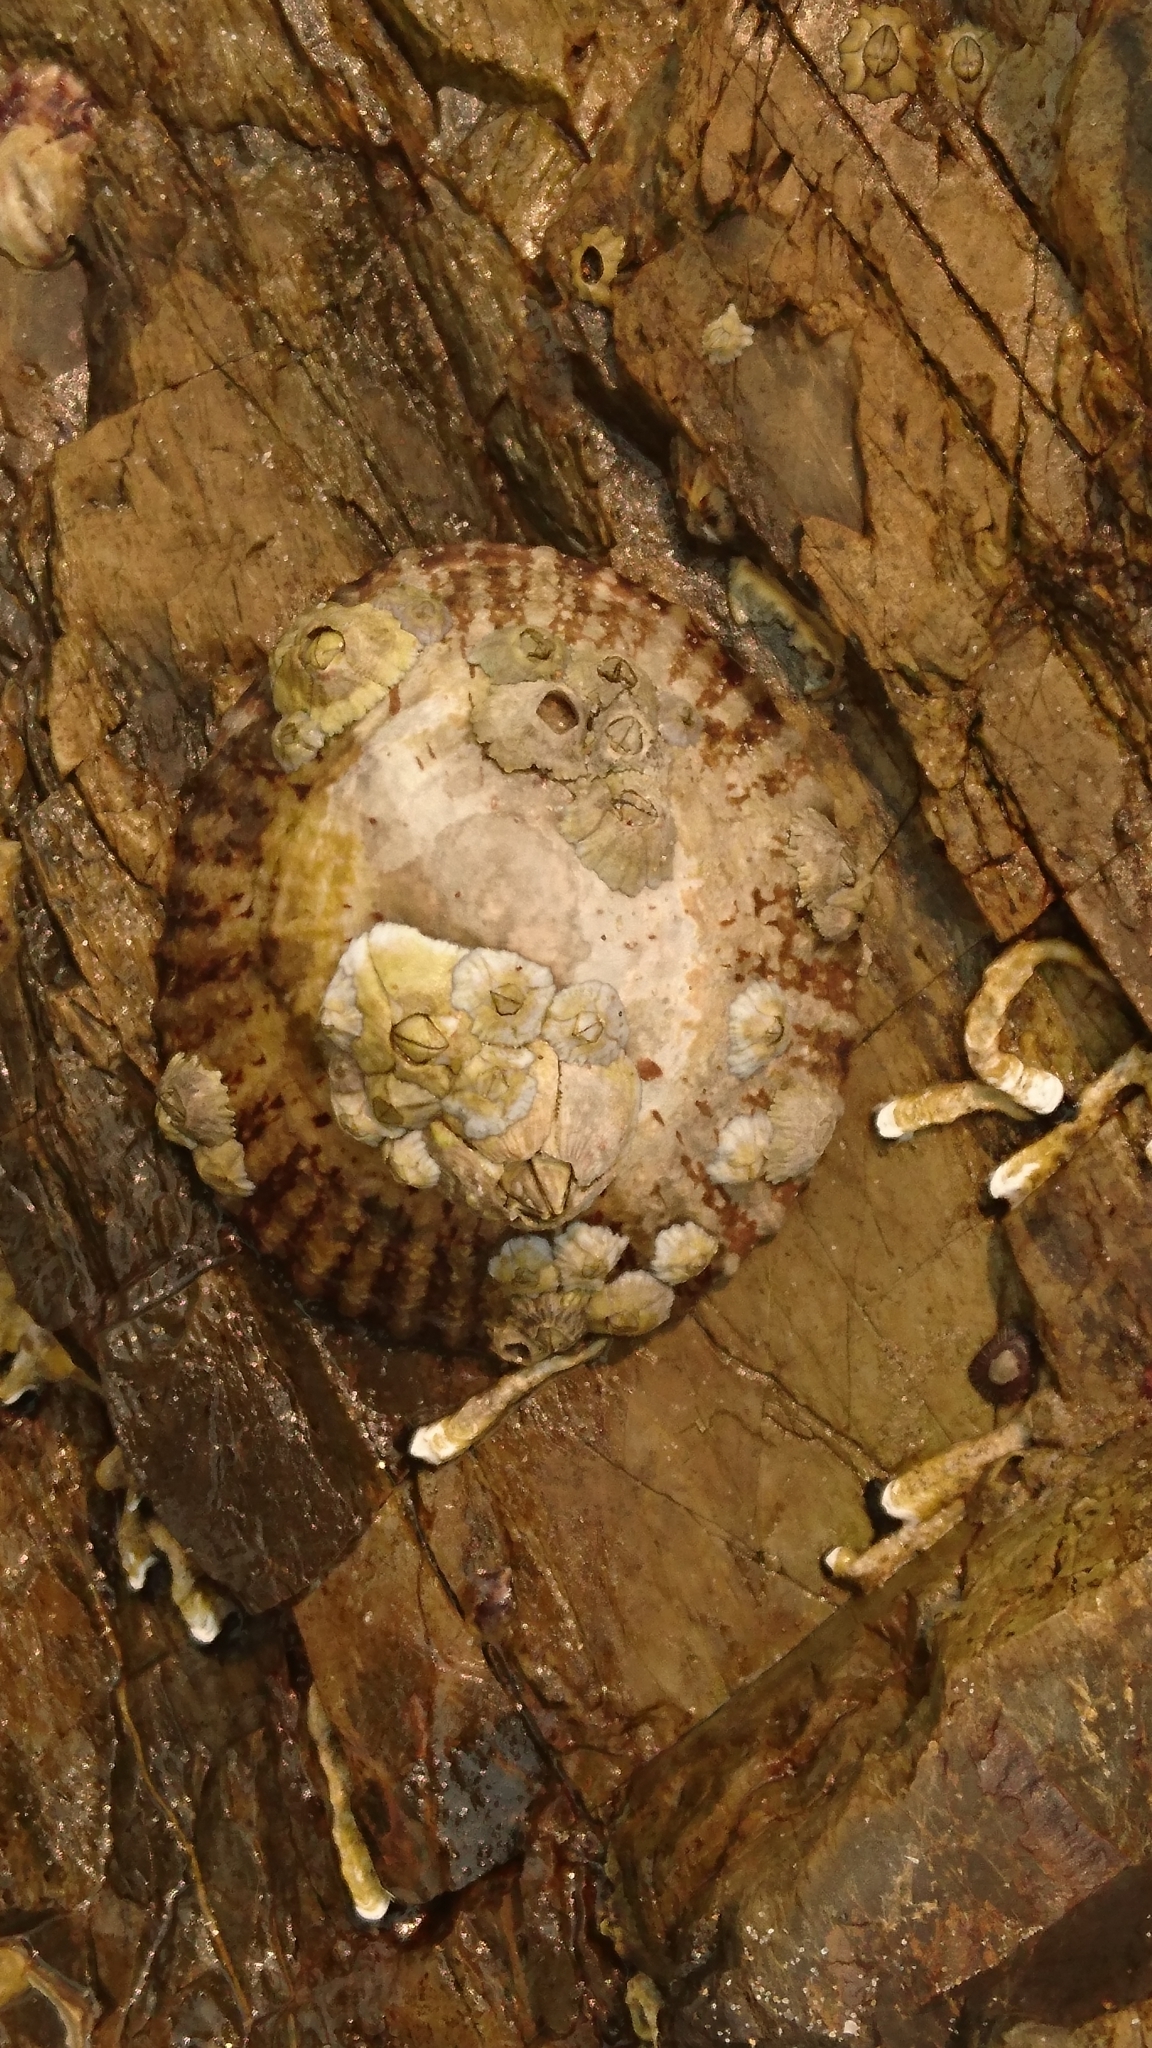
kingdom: Animalia
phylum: Mollusca
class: Gastropoda
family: Nacellidae
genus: Cellana
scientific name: Cellana tramoserica
